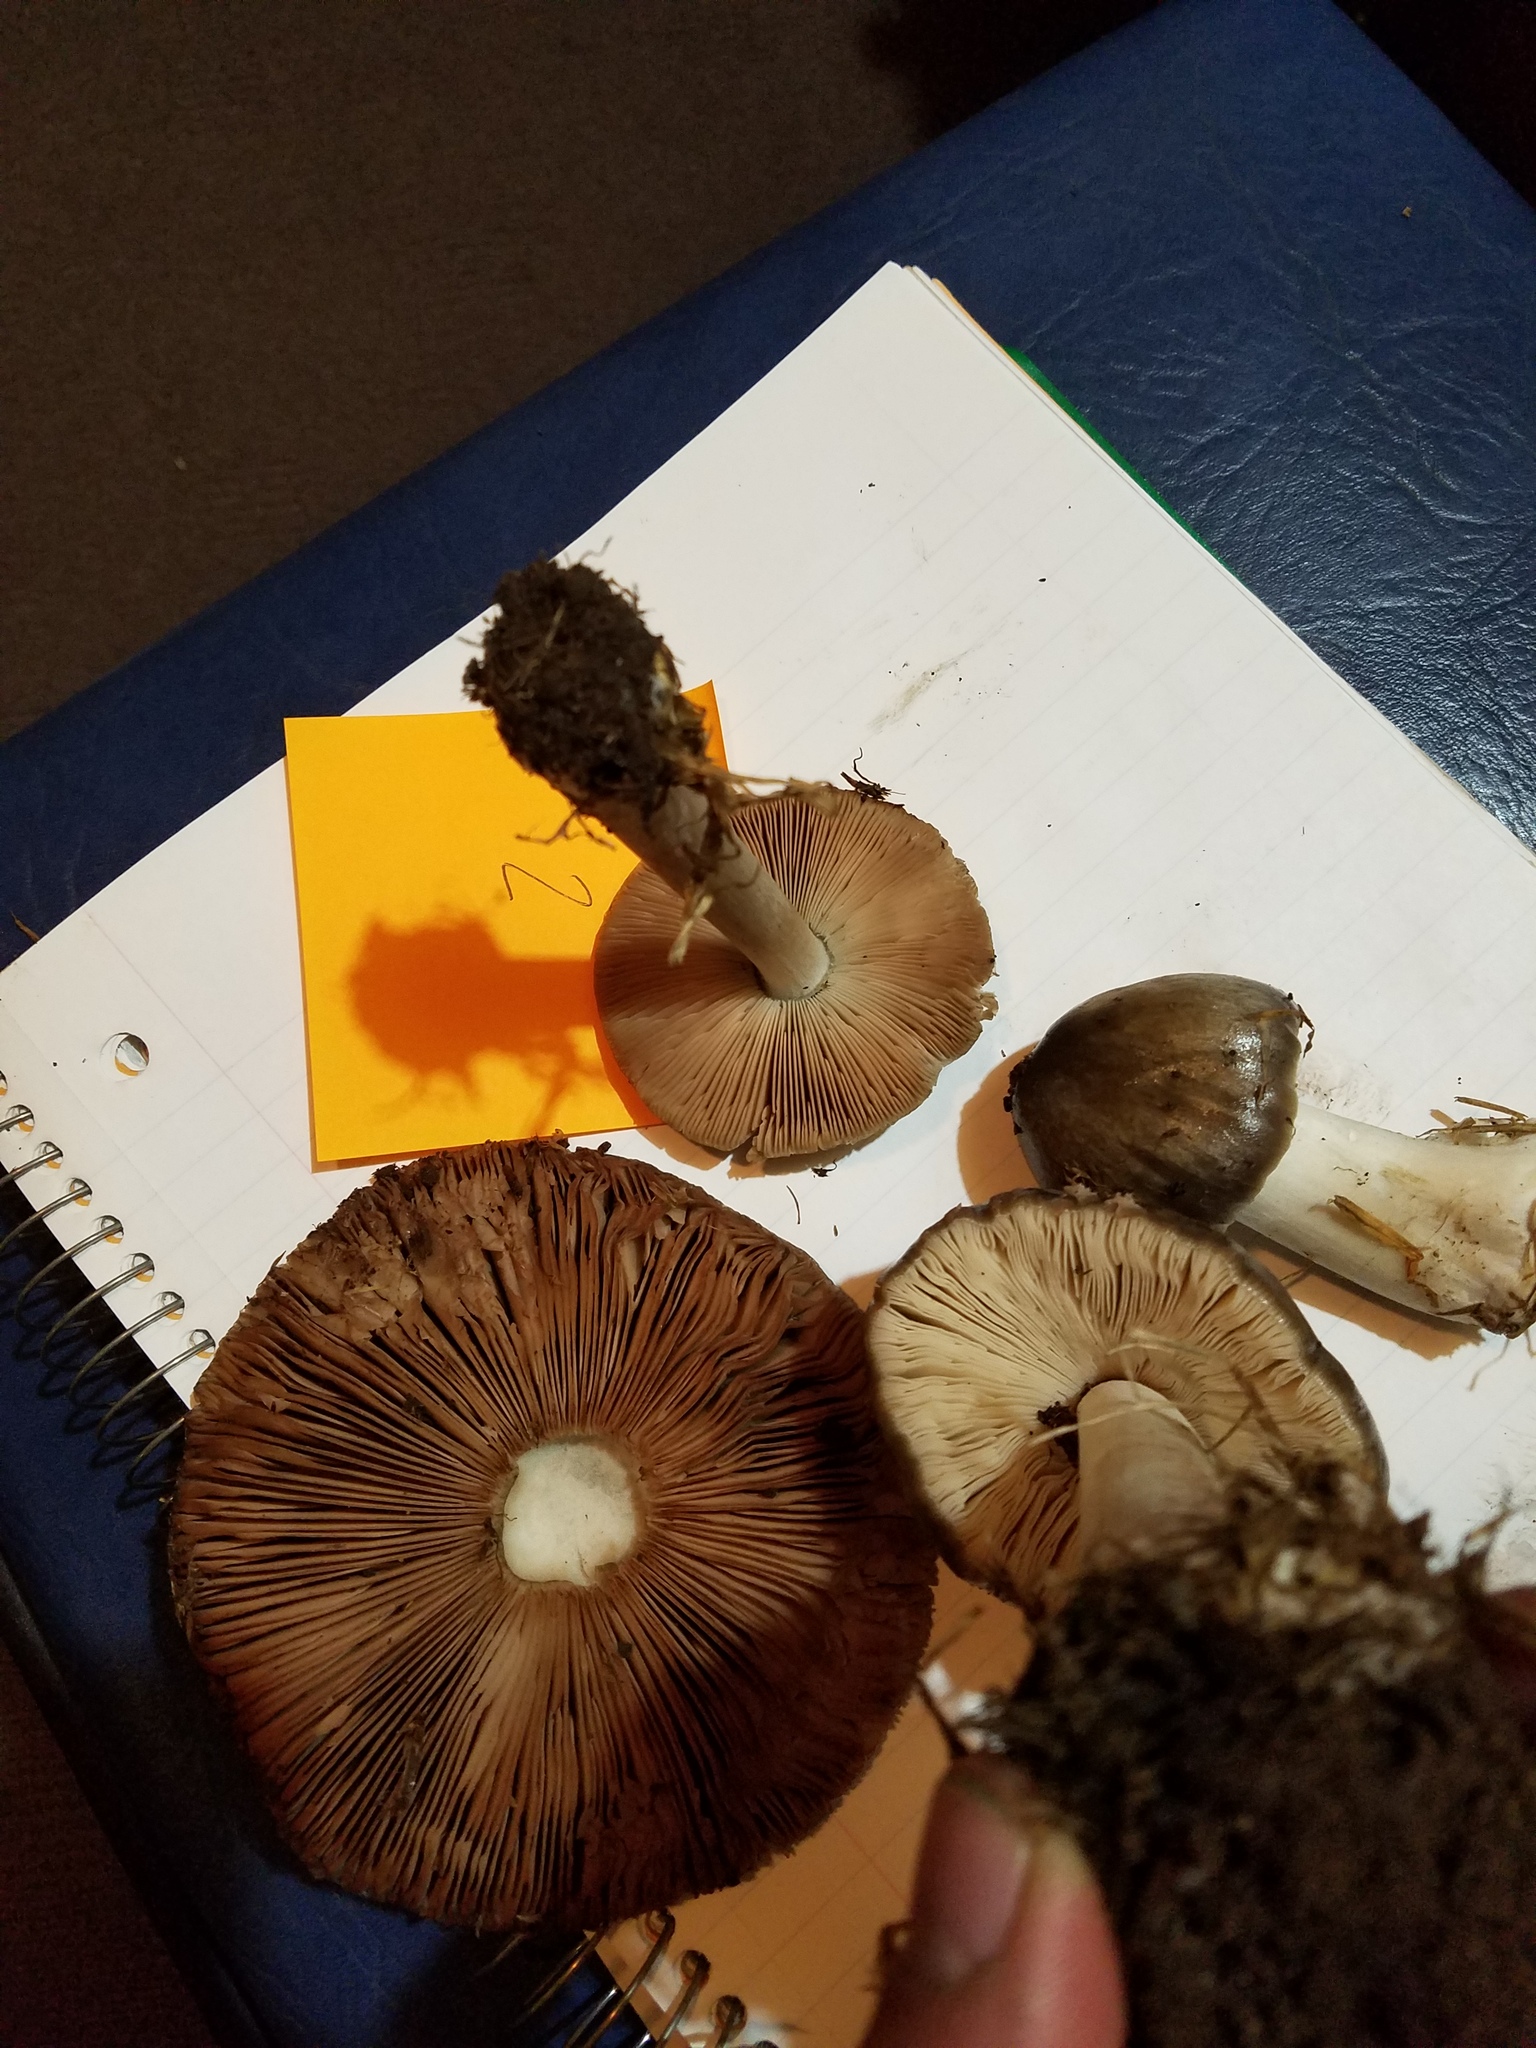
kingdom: Fungi
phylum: Basidiomycota
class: Agaricomycetes
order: Agaricales
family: Pluteaceae
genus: Volvopluteus
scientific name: Volvopluteus gloiocephalus
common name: Stubble rosegill
